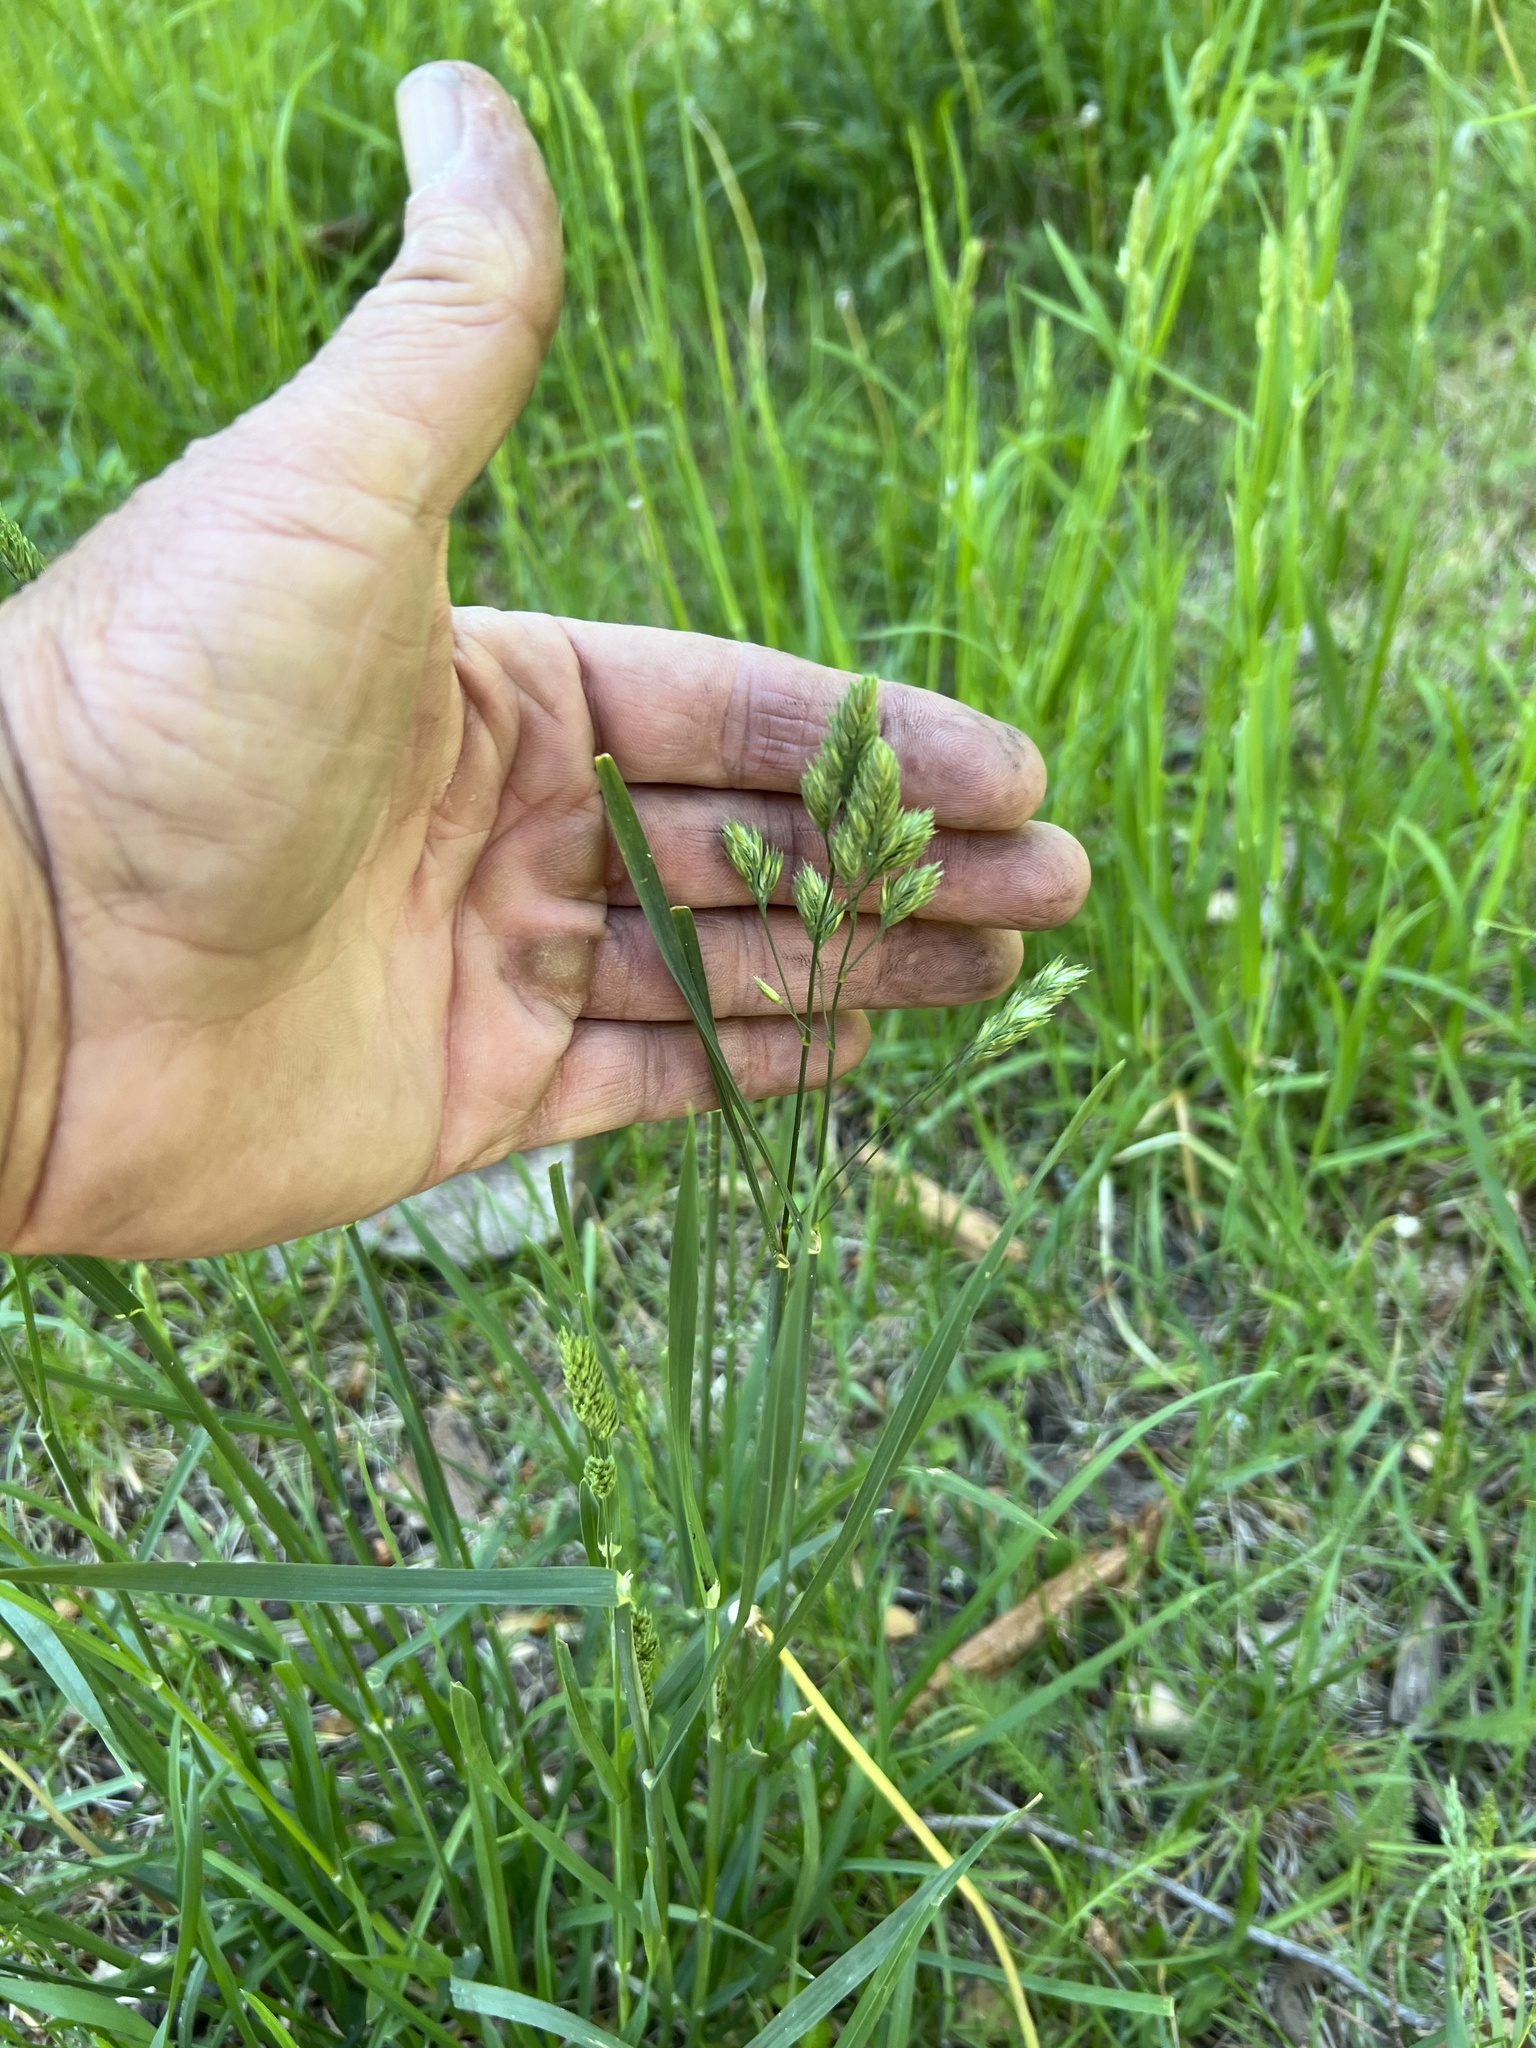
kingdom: Plantae
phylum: Tracheophyta
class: Liliopsida
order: Poales
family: Poaceae
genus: Dactylis
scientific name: Dactylis glomerata
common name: Orchardgrass
